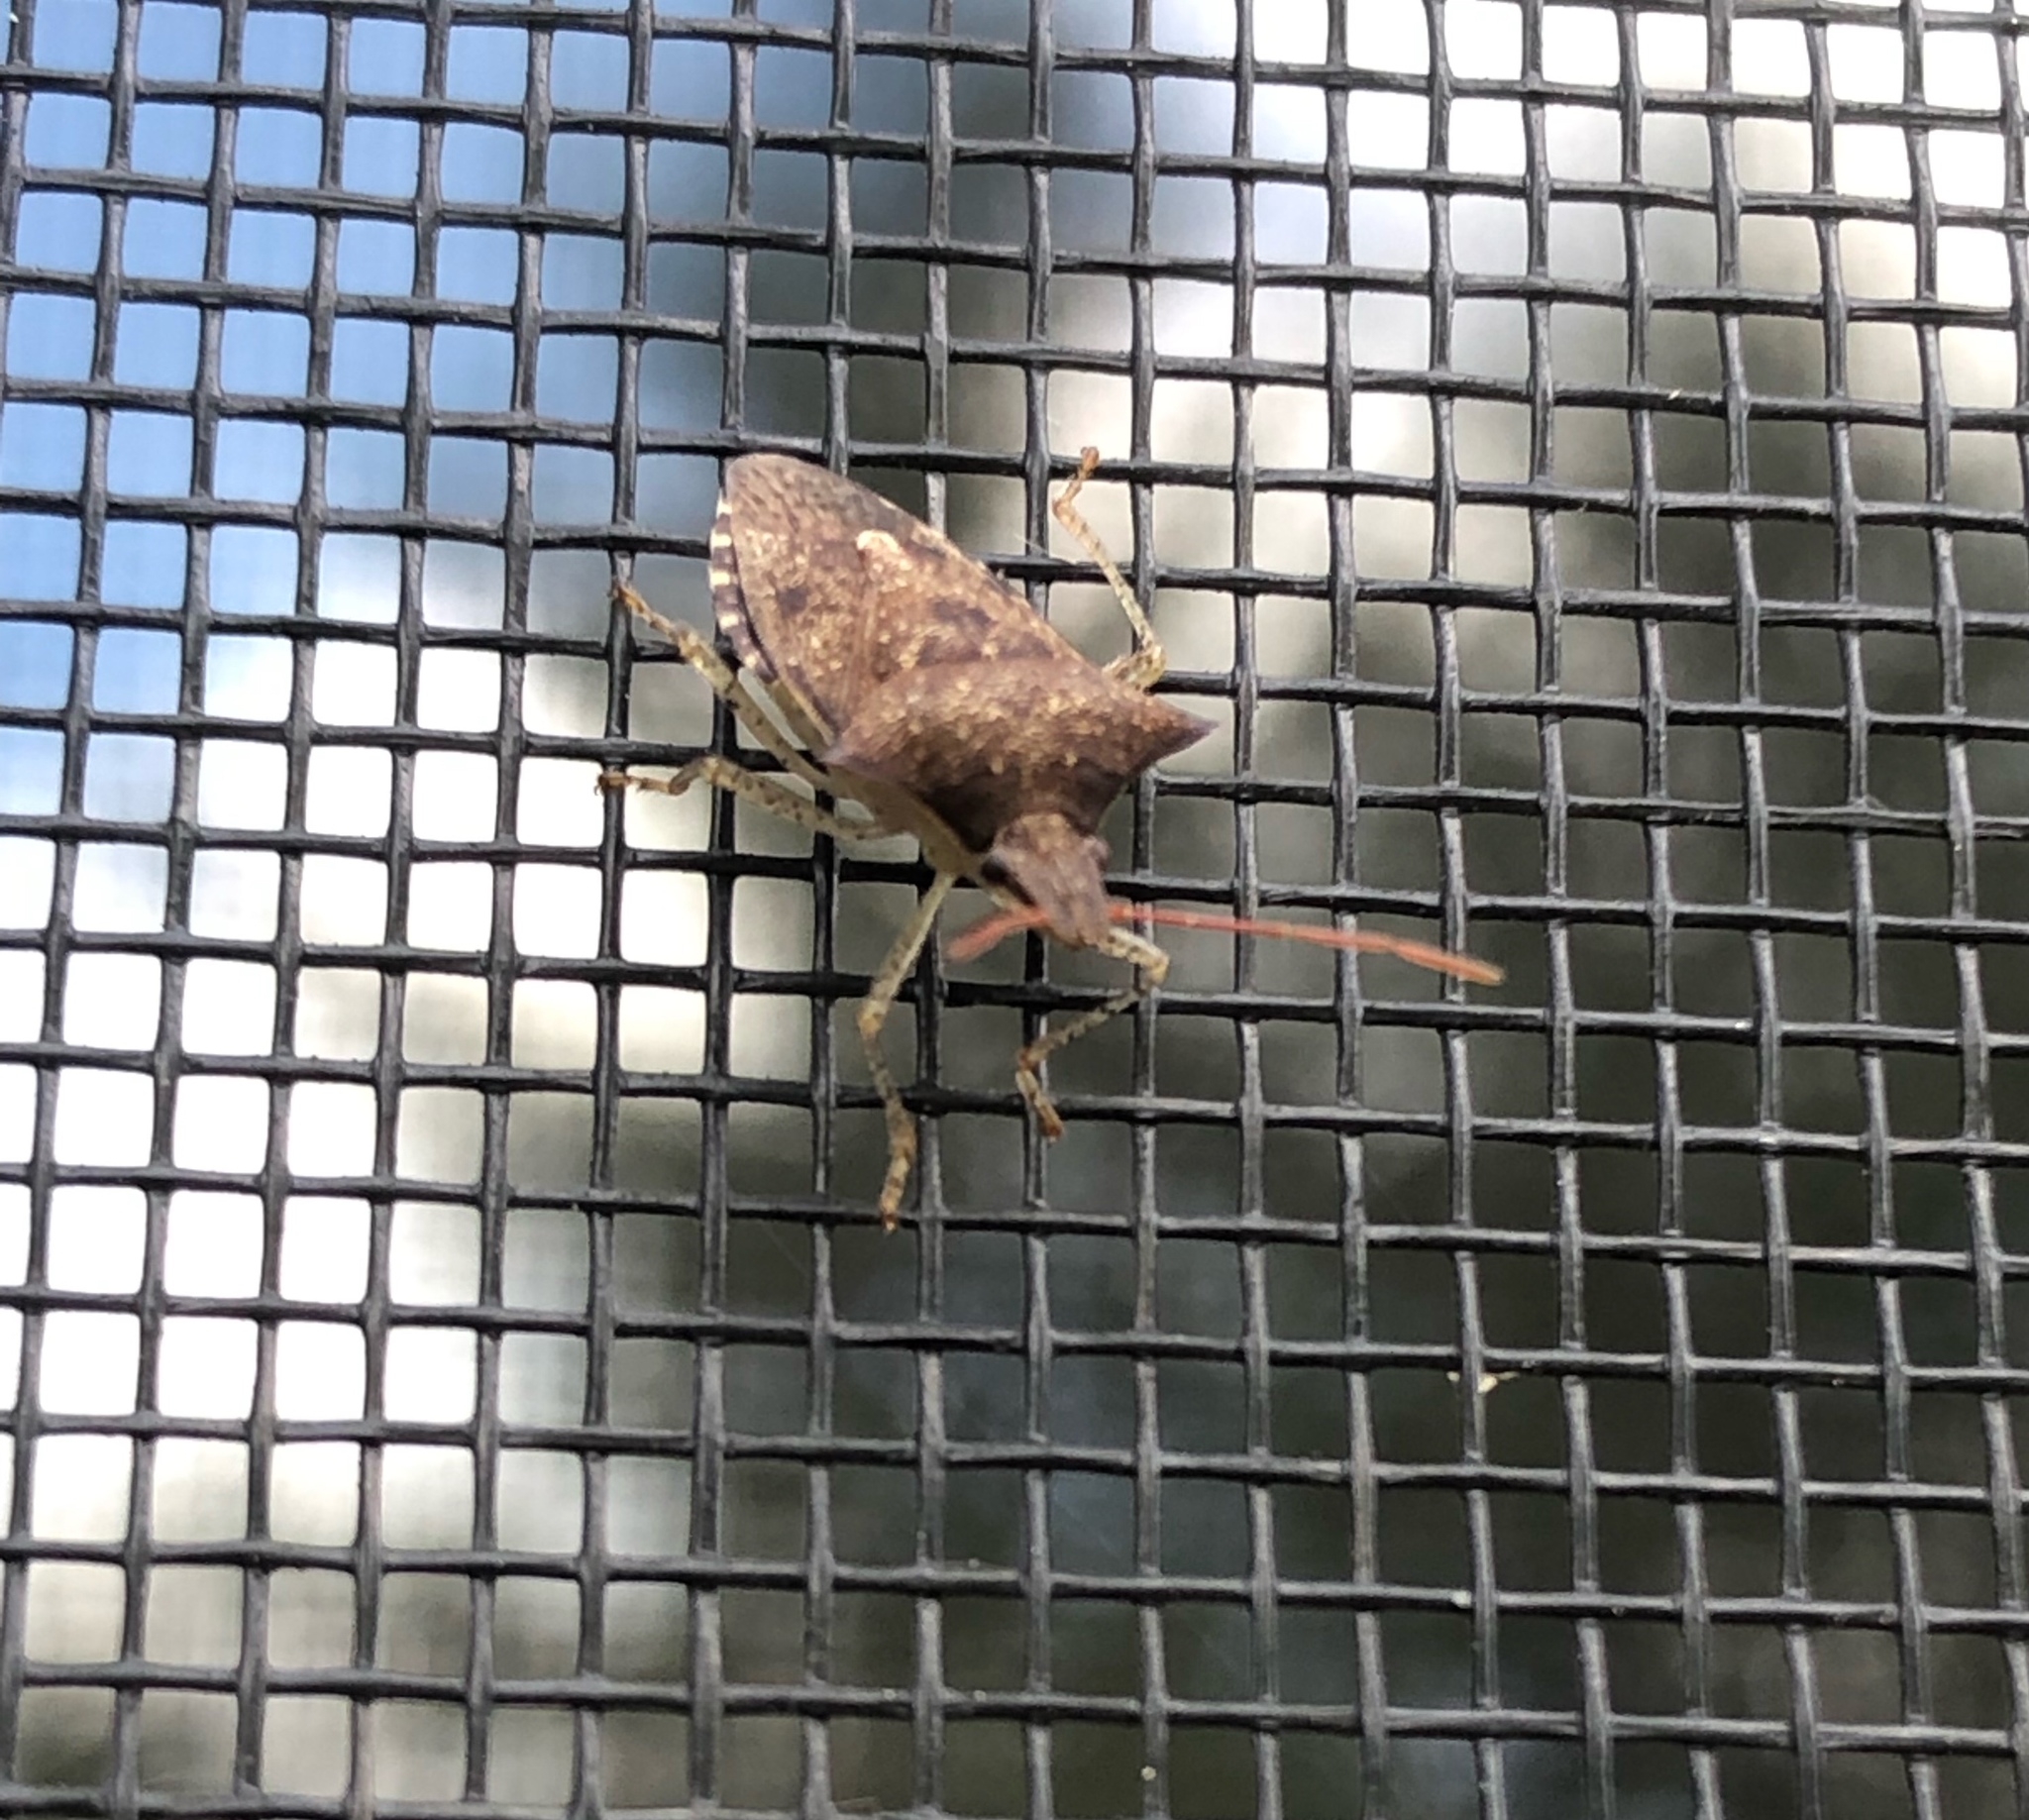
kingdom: Animalia
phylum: Arthropoda
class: Insecta
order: Hemiptera
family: Pentatomidae
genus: Euschistus
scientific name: Euschistus tristigmus
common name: Dusky stink bug
